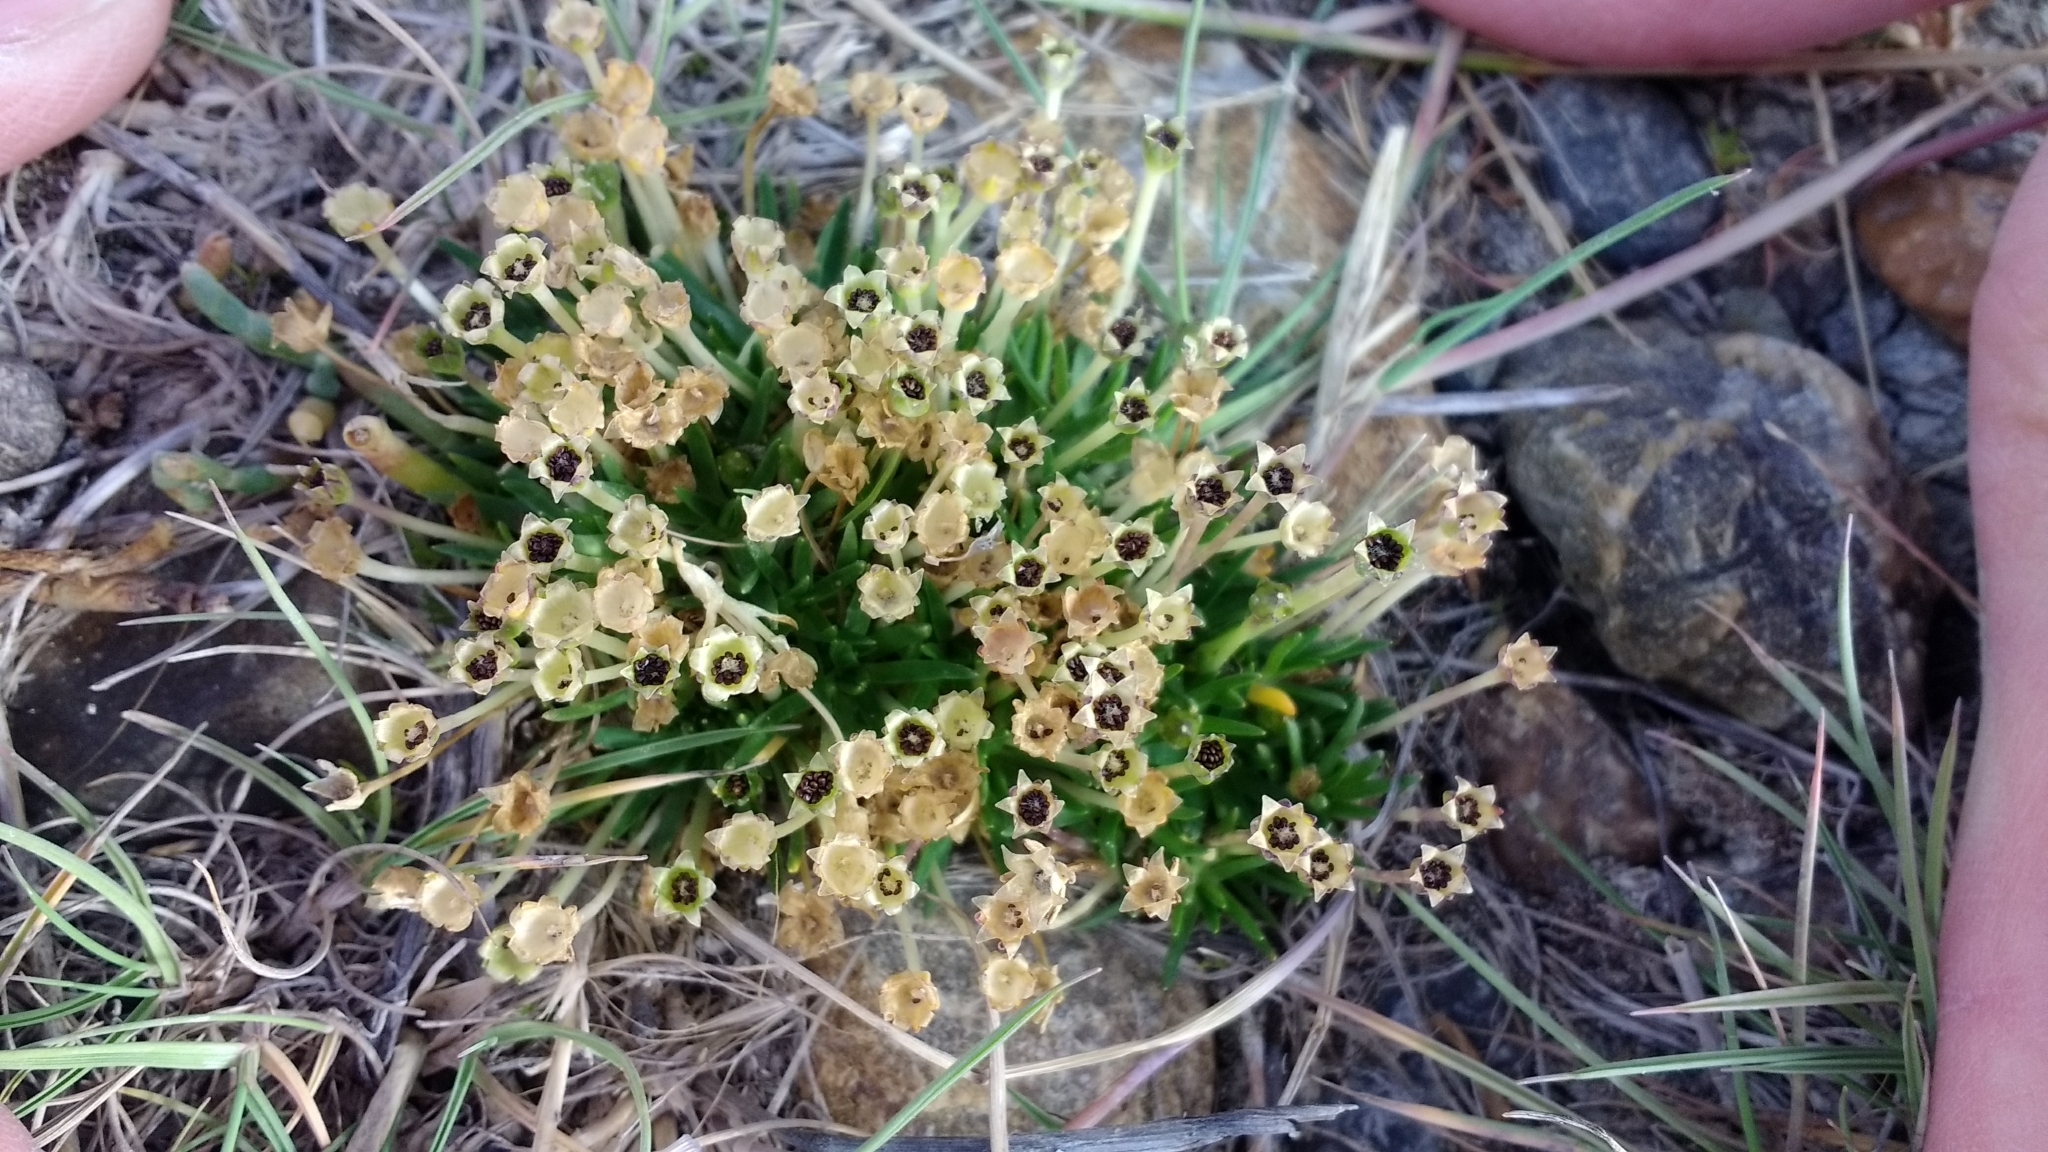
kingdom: Plantae
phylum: Tracheophyta
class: Magnoliopsida
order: Caryophyllales
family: Caryophyllaceae
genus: Colobanthus
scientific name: Colobanthus quitensis
